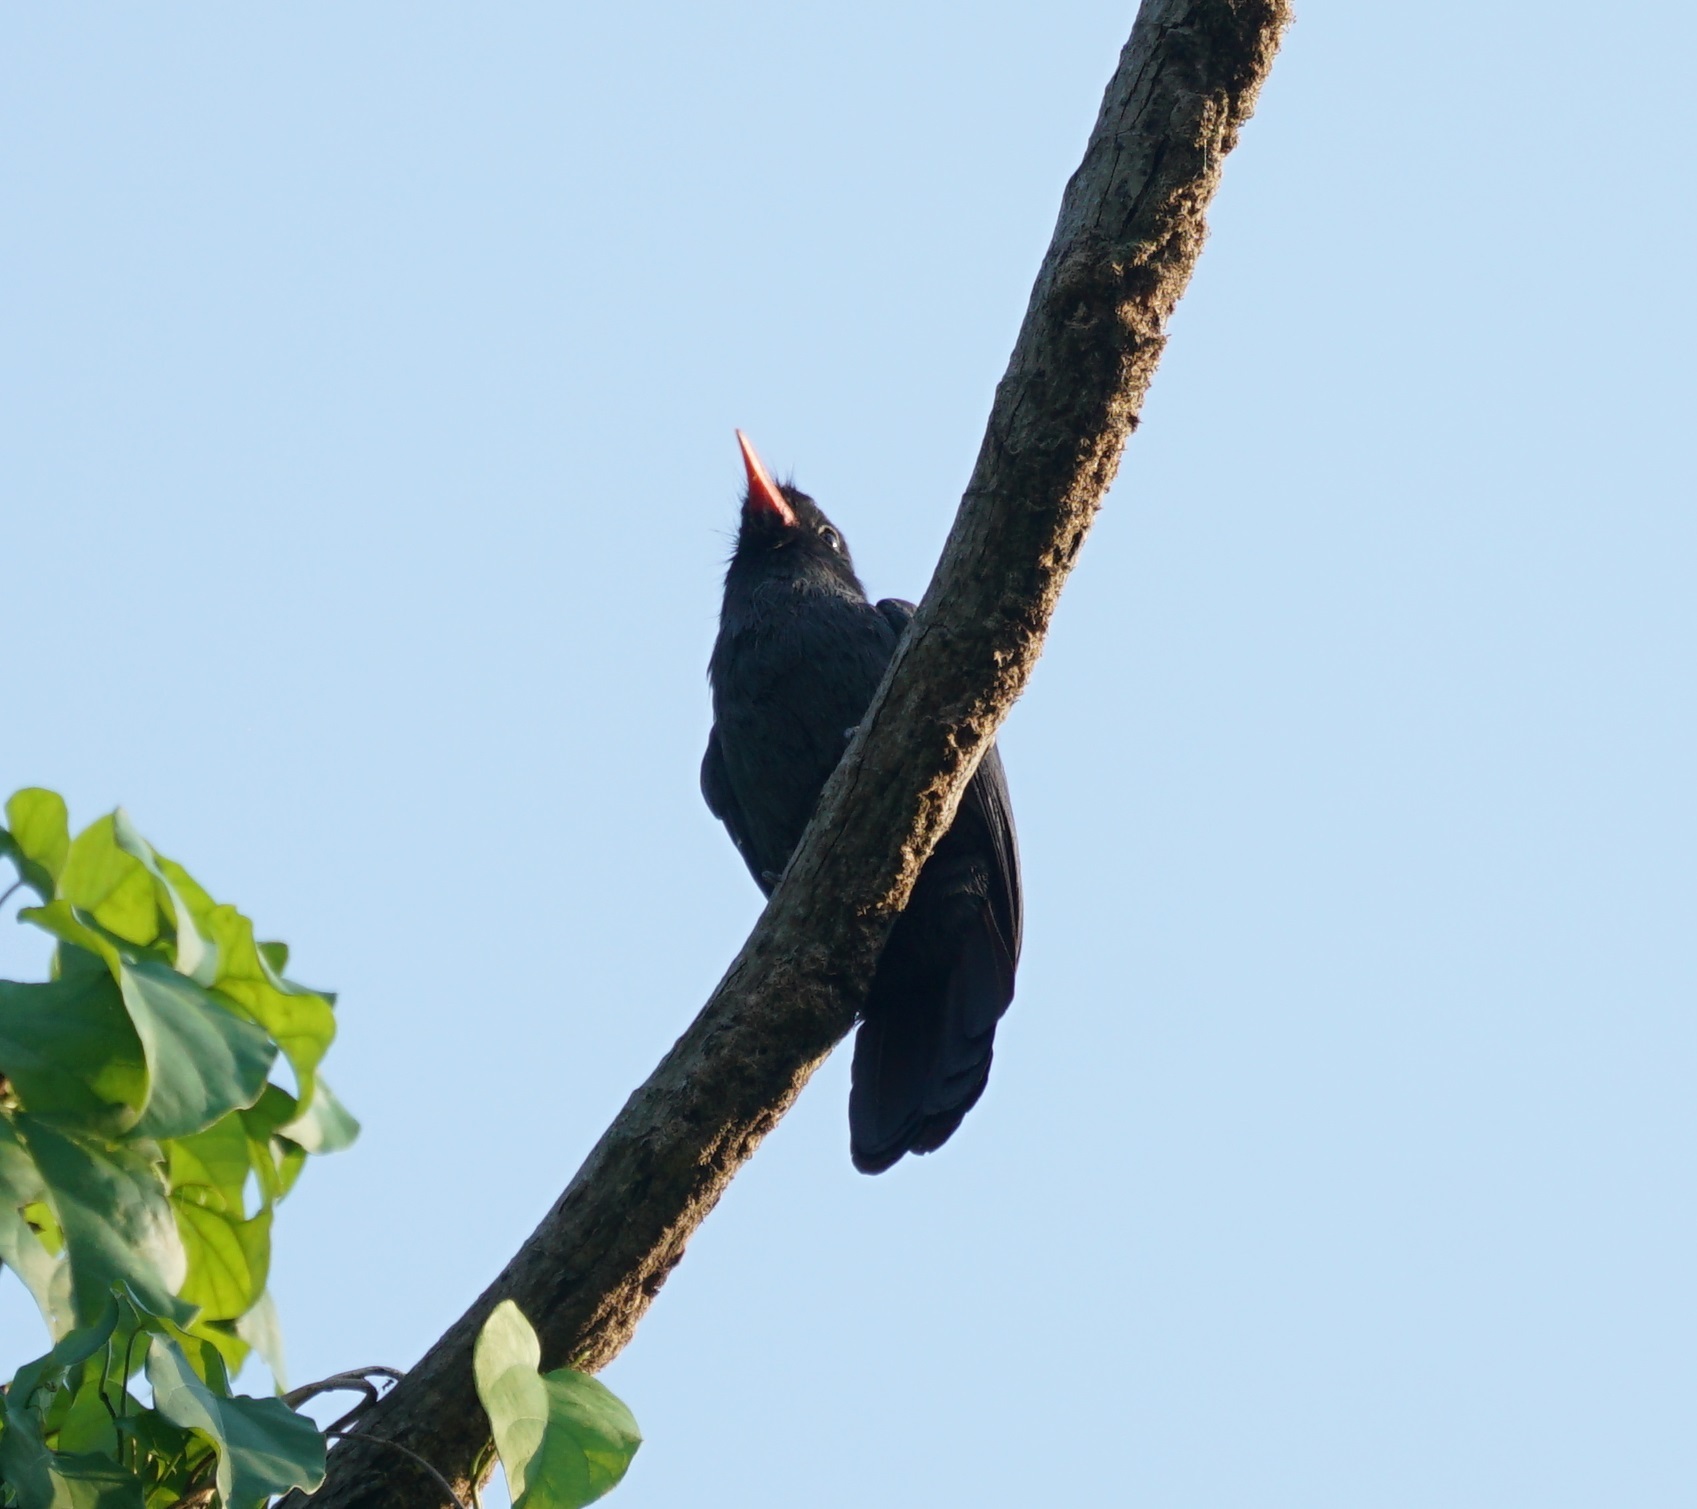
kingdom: Animalia
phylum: Chordata
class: Aves
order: Piciformes
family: Bucconidae
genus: Monasa
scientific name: Monasa nigrifrons
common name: Black-fronted nunbird
